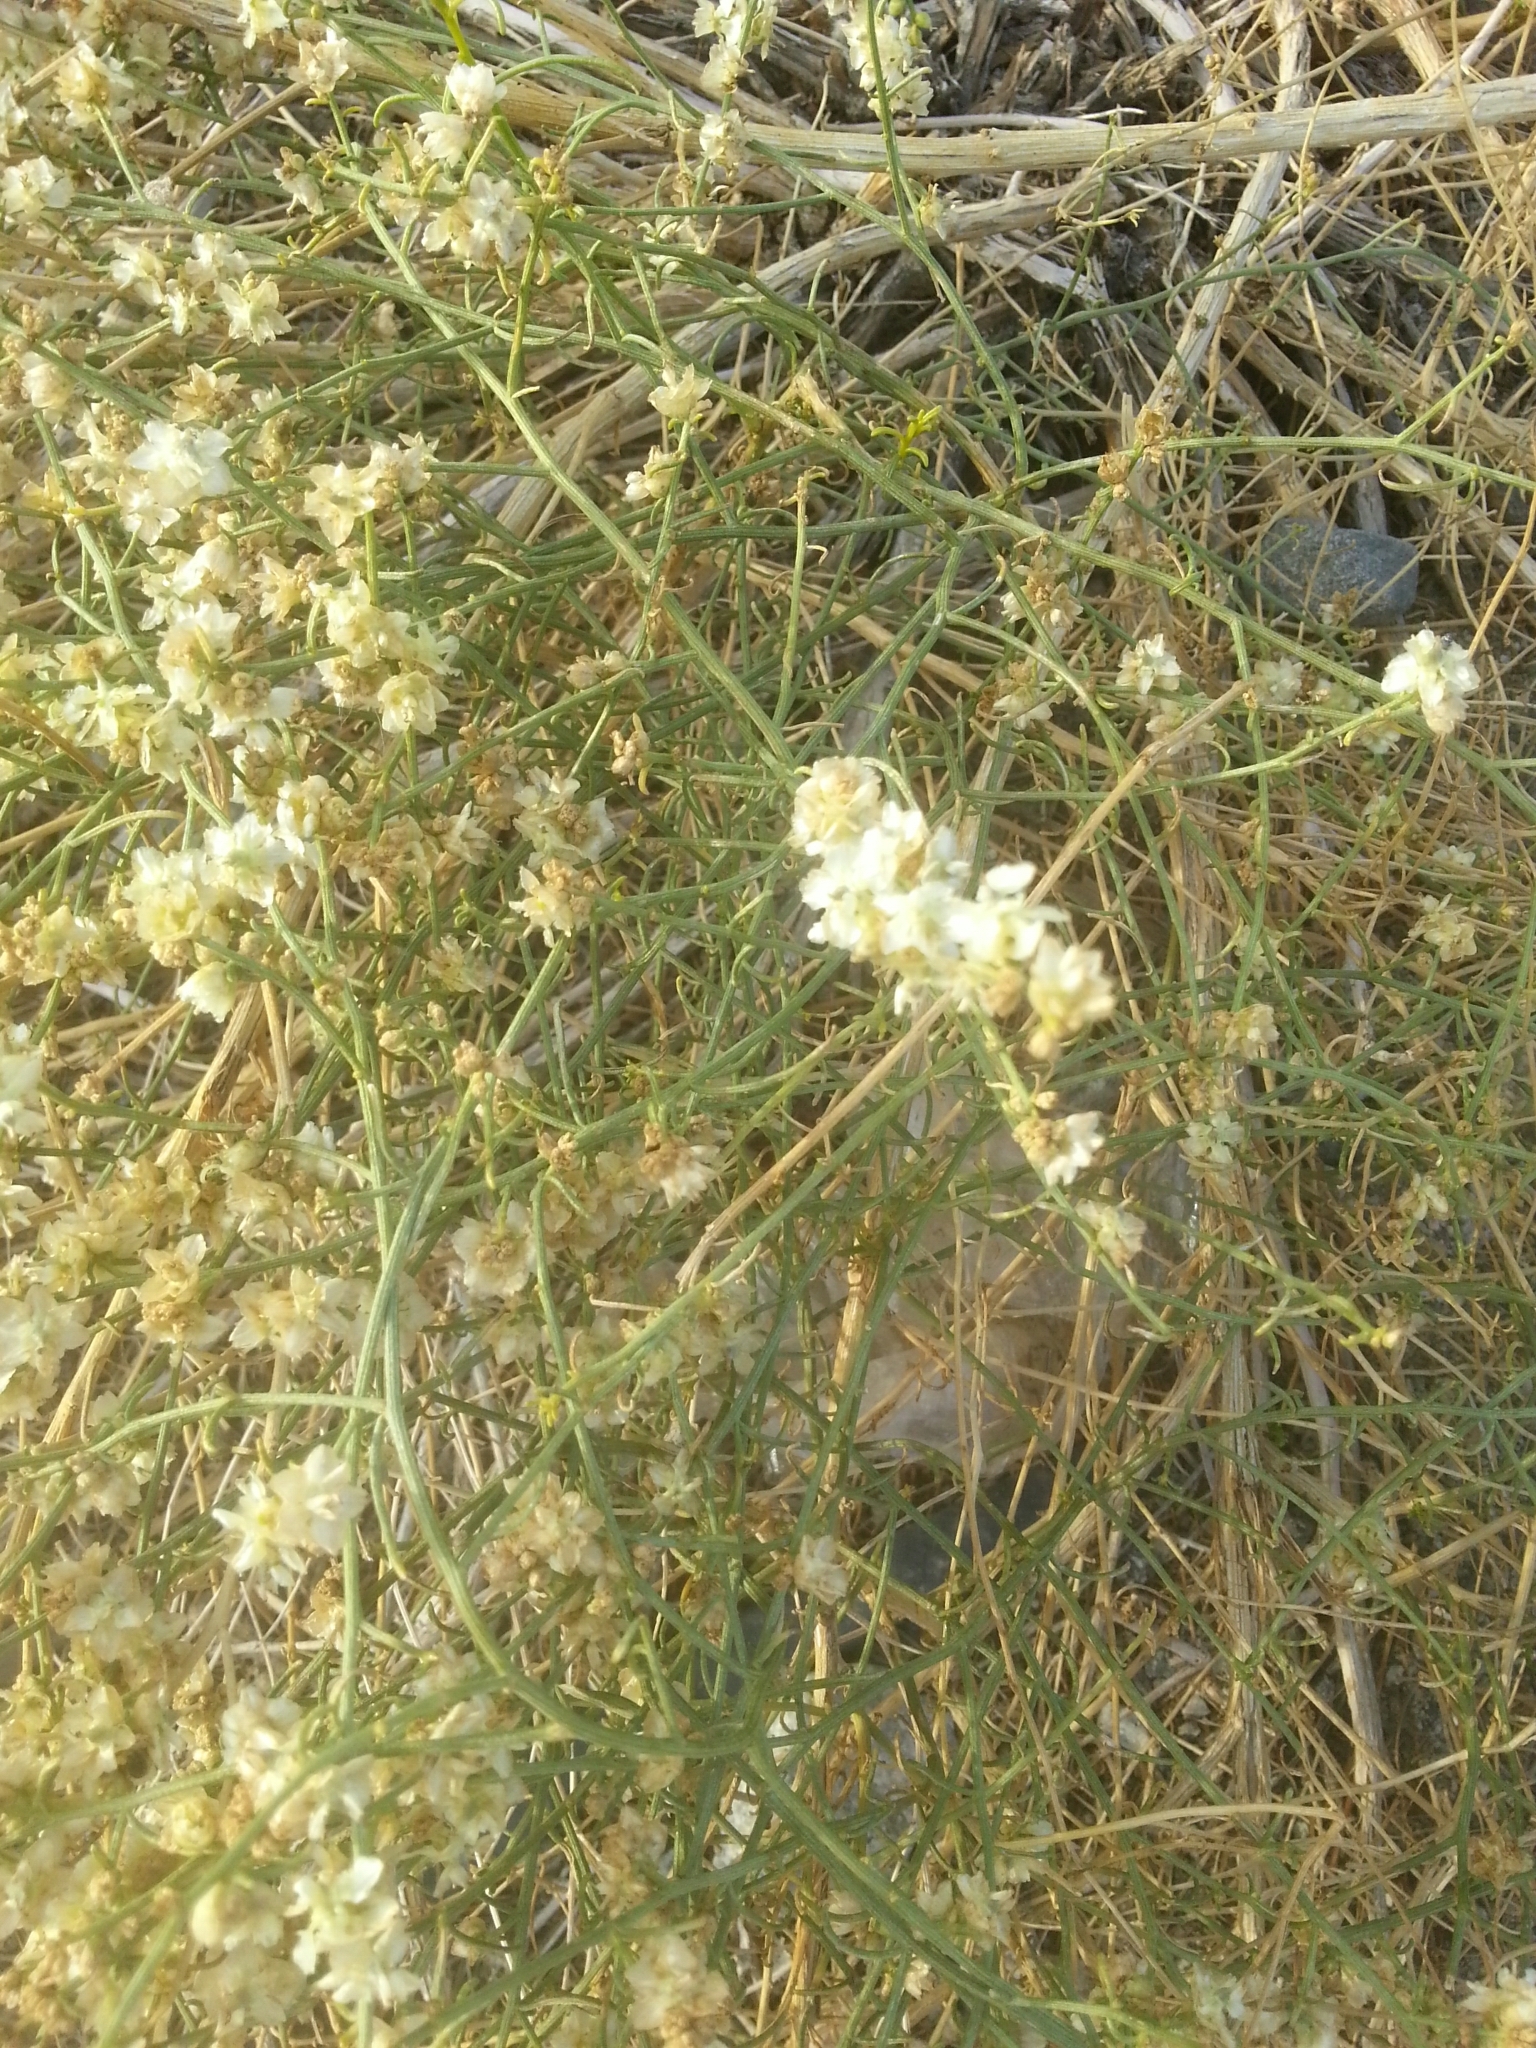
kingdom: Plantae
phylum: Tracheophyta
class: Magnoliopsida
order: Asterales
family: Asteraceae
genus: Ambrosia
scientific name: Ambrosia salsola
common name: Burrobrush
